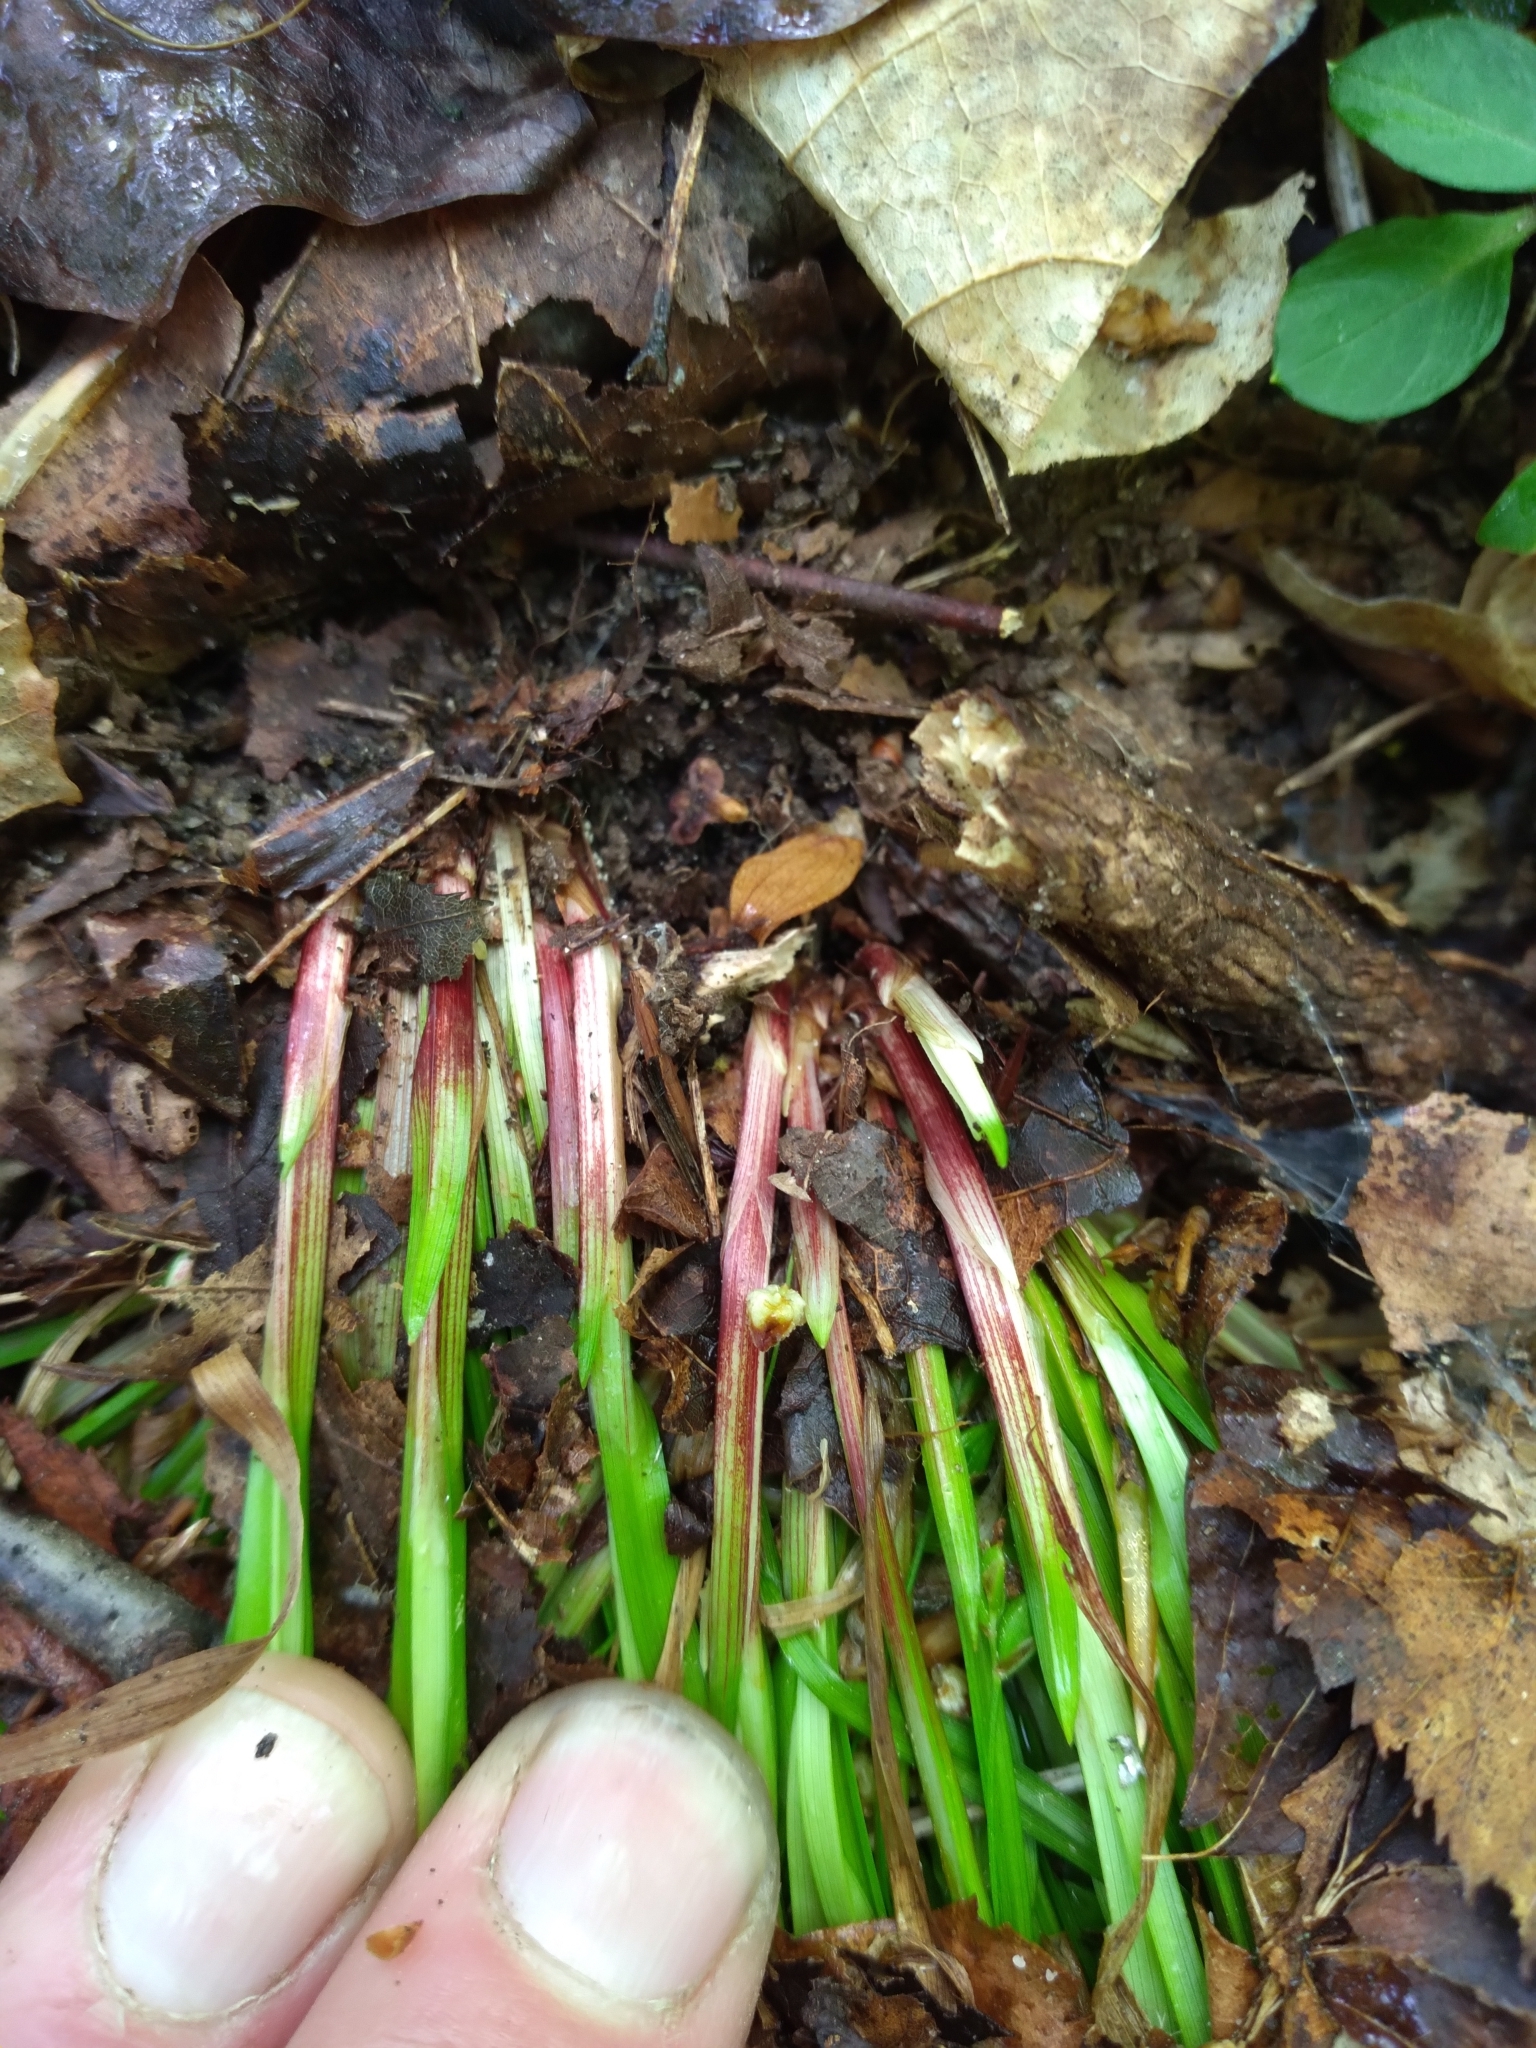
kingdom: Plantae
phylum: Tracheophyta
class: Liliopsida
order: Poales
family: Cyperaceae
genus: Carex
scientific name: Carex austrocaroliniana
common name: Tarheel sedge
